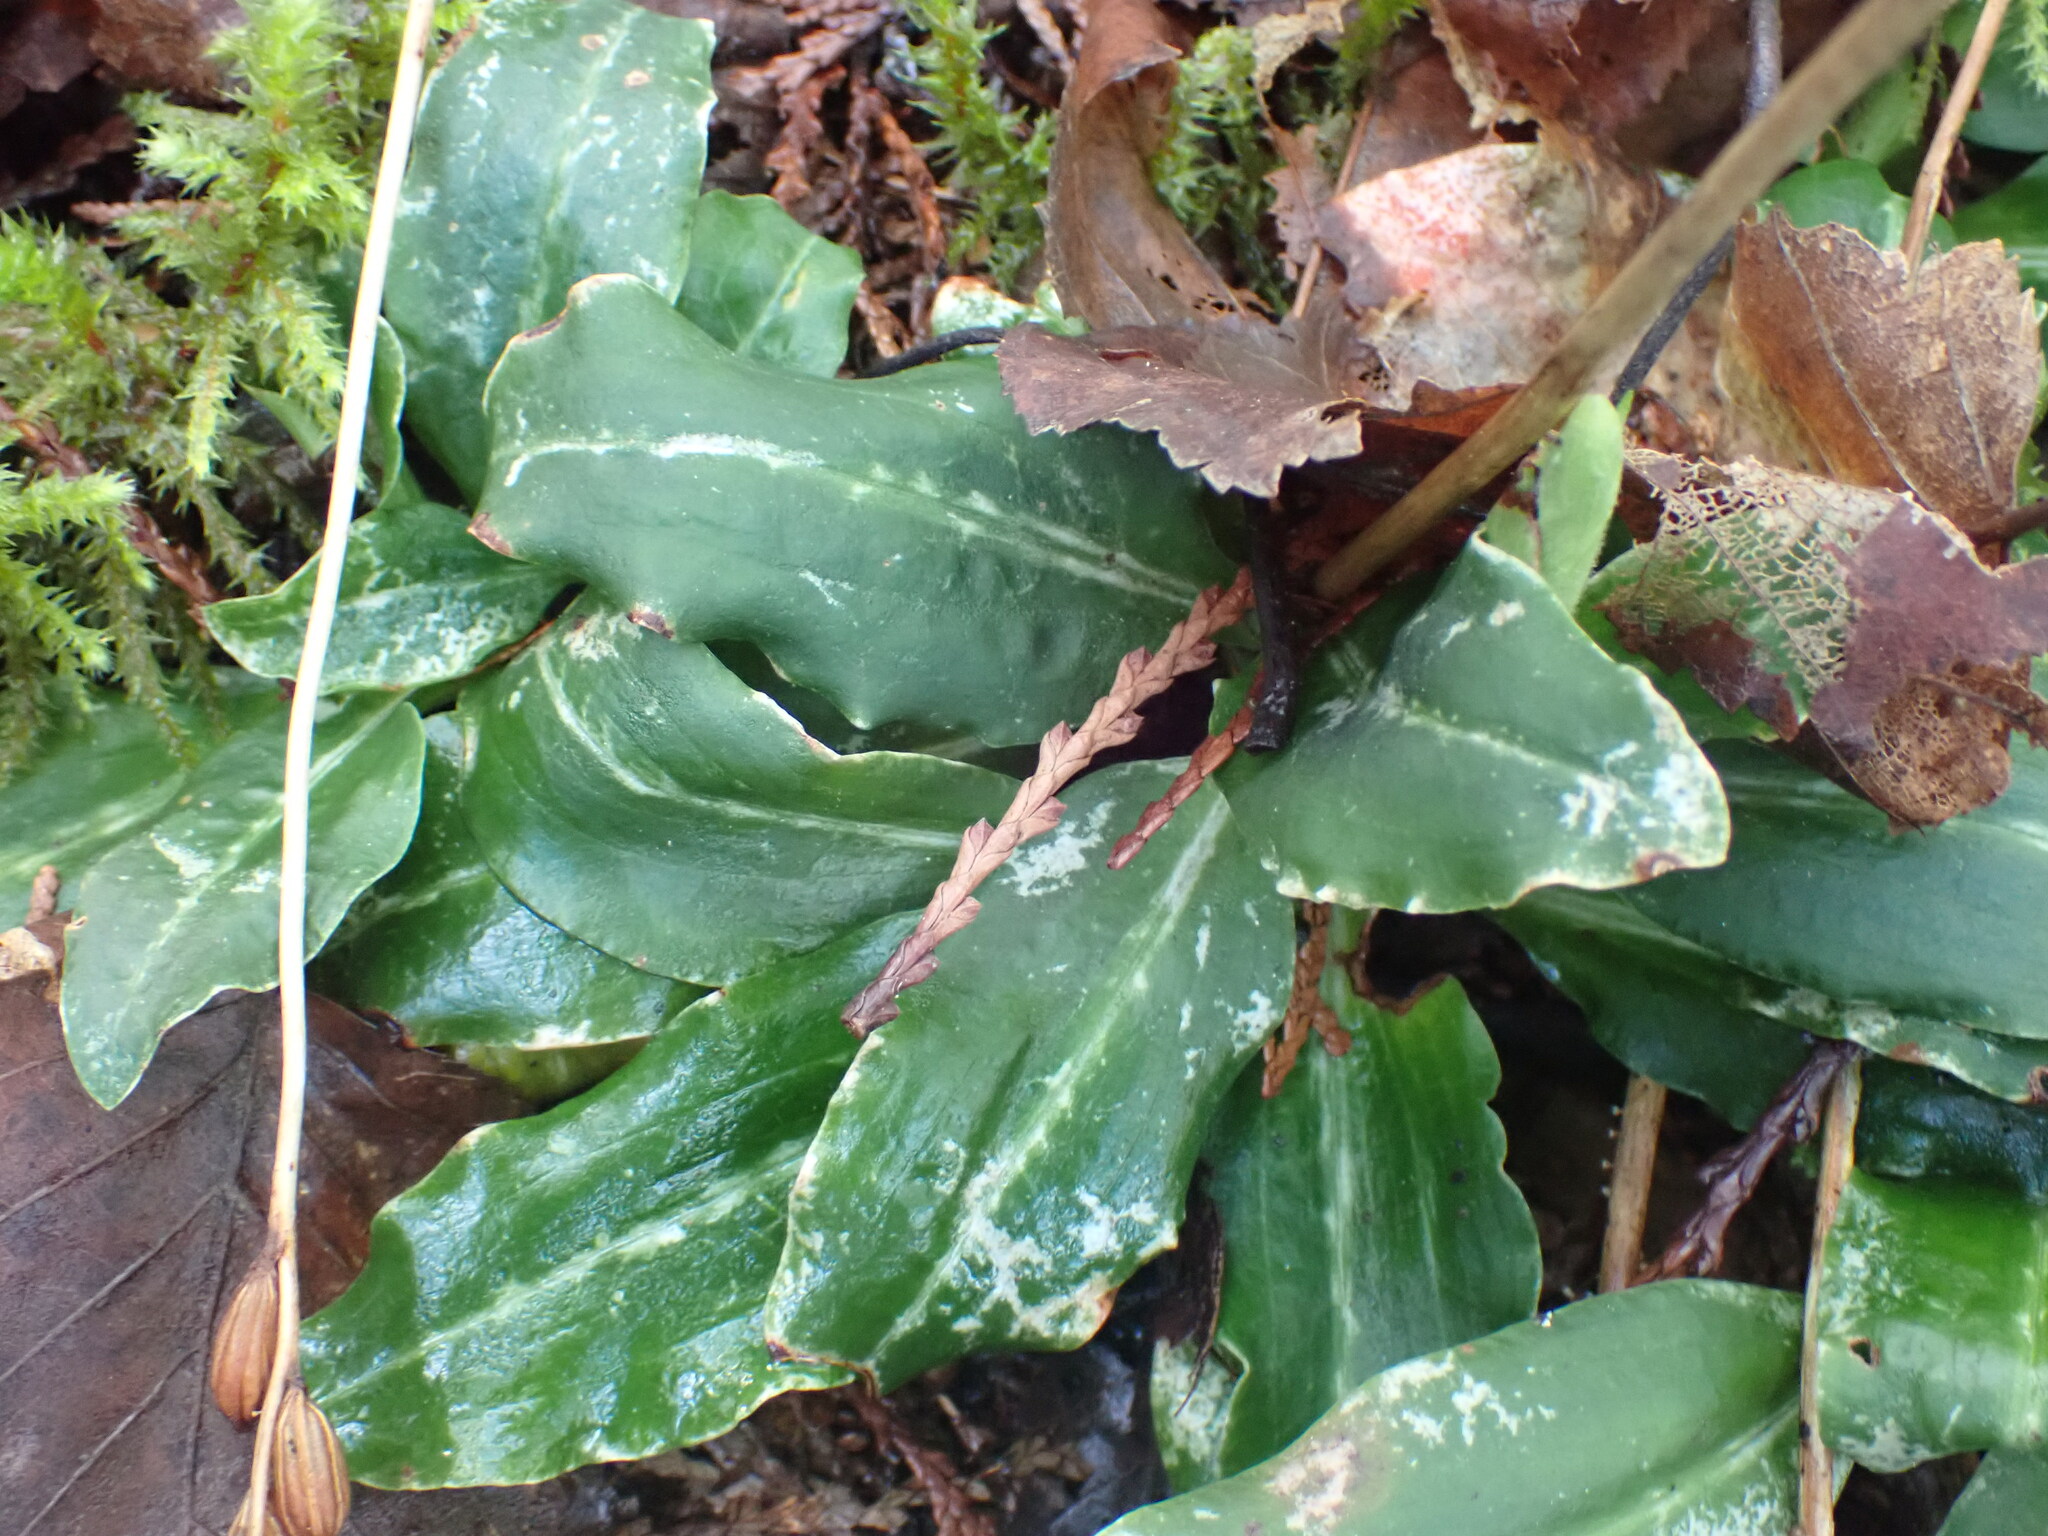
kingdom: Plantae
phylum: Tracheophyta
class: Liliopsida
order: Asparagales
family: Orchidaceae
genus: Goodyera
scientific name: Goodyera oblongifolia
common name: Giant rattlesnake-plantain
